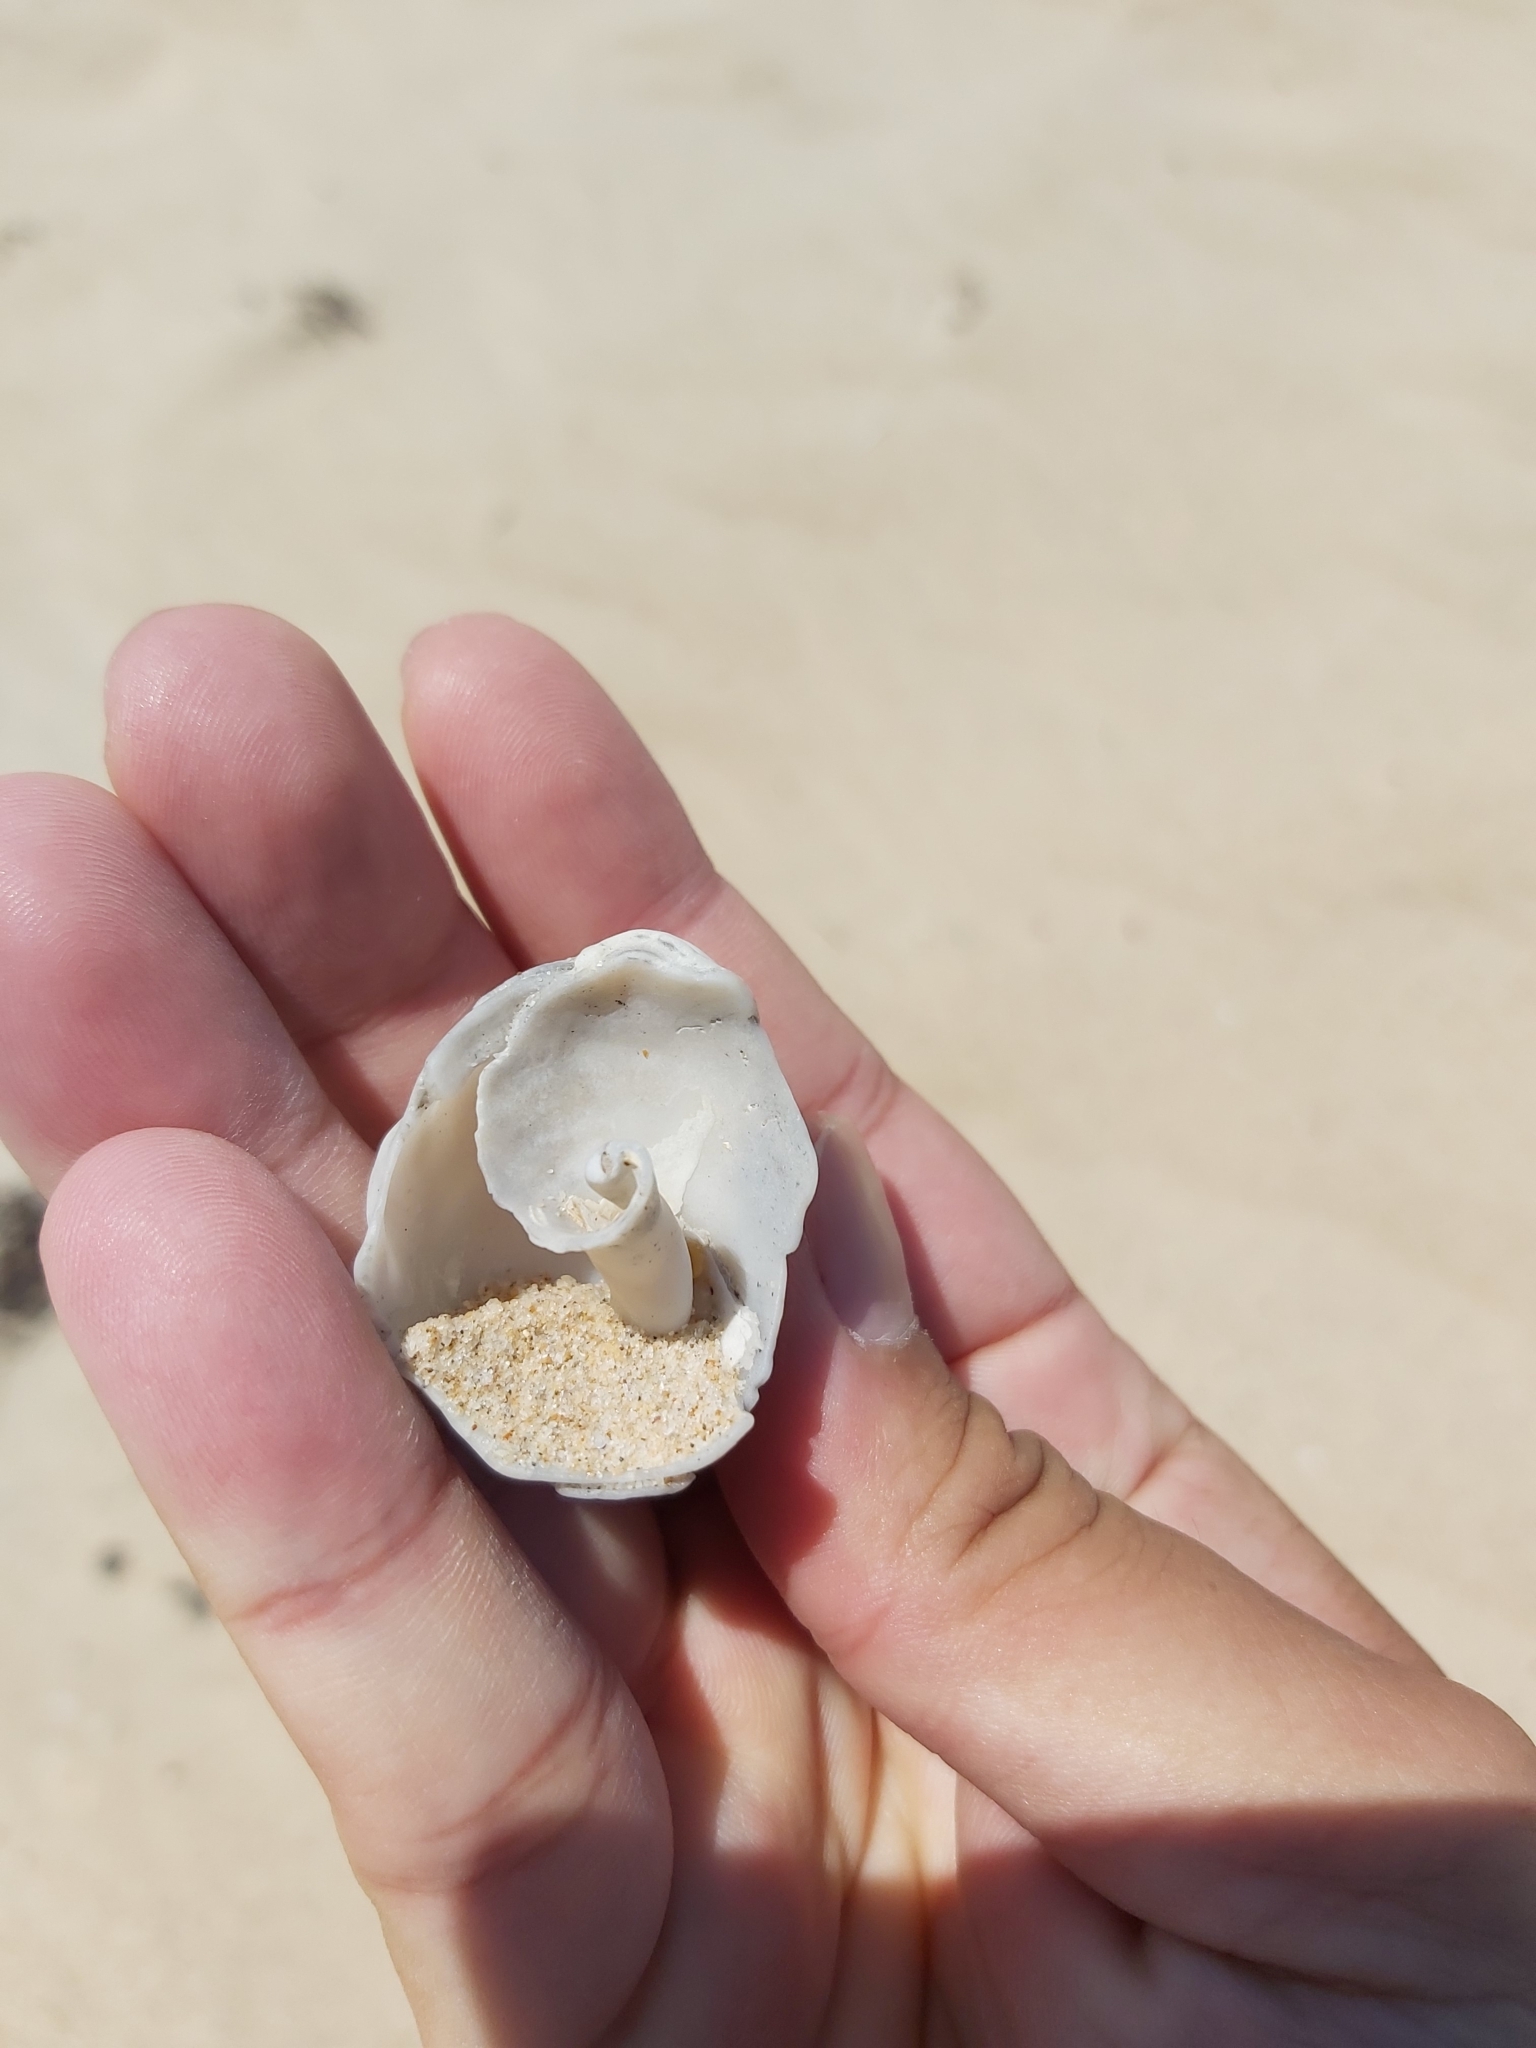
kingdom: Animalia
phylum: Mollusca
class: Gastropoda
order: Littorinimorpha
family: Cymatiidae
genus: Cabestana
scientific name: Cabestana spengleri
